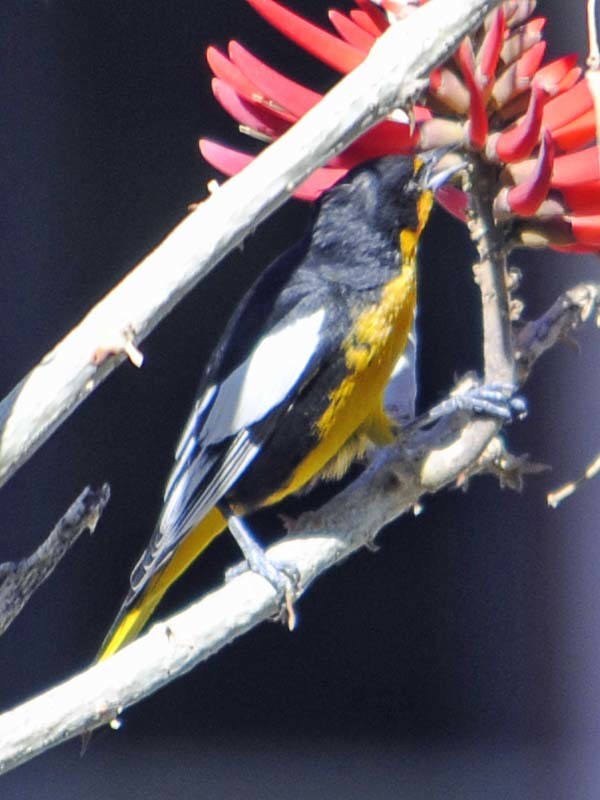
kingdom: Animalia
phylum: Chordata
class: Aves
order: Passeriformes
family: Icteridae
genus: Icterus
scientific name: Icterus abeillei
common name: Black-backed oriole
